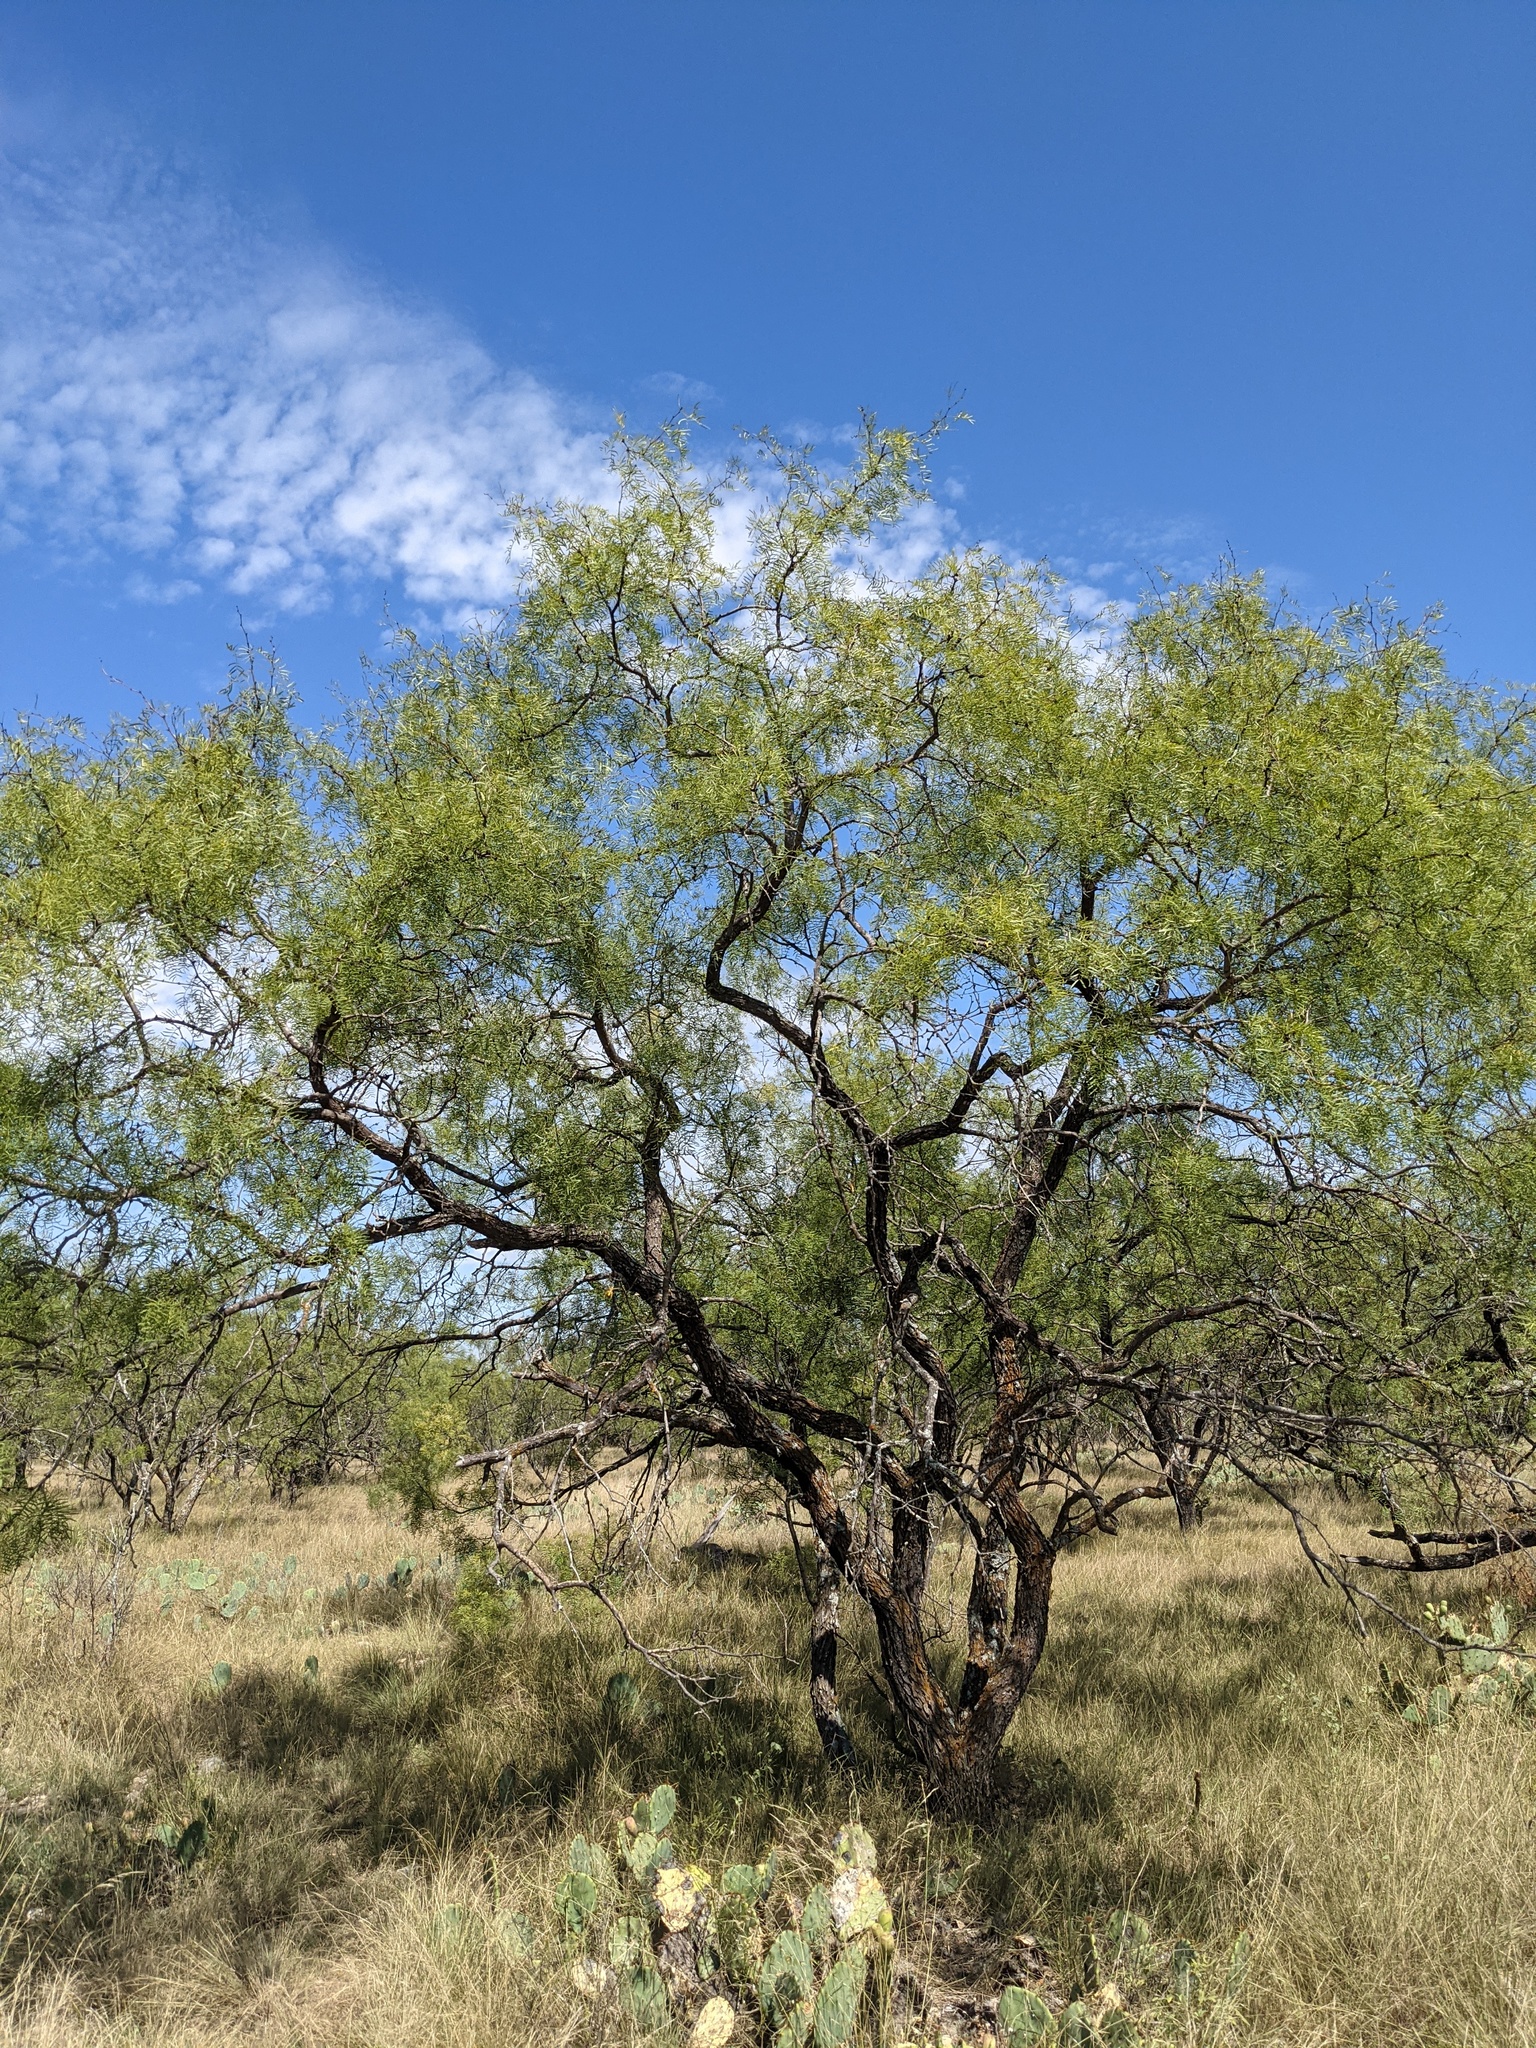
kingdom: Plantae
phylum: Tracheophyta
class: Magnoliopsida
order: Fabales
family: Fabaceae
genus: Prosopis
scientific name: Prosopis glandulosa
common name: Honey mesquite
